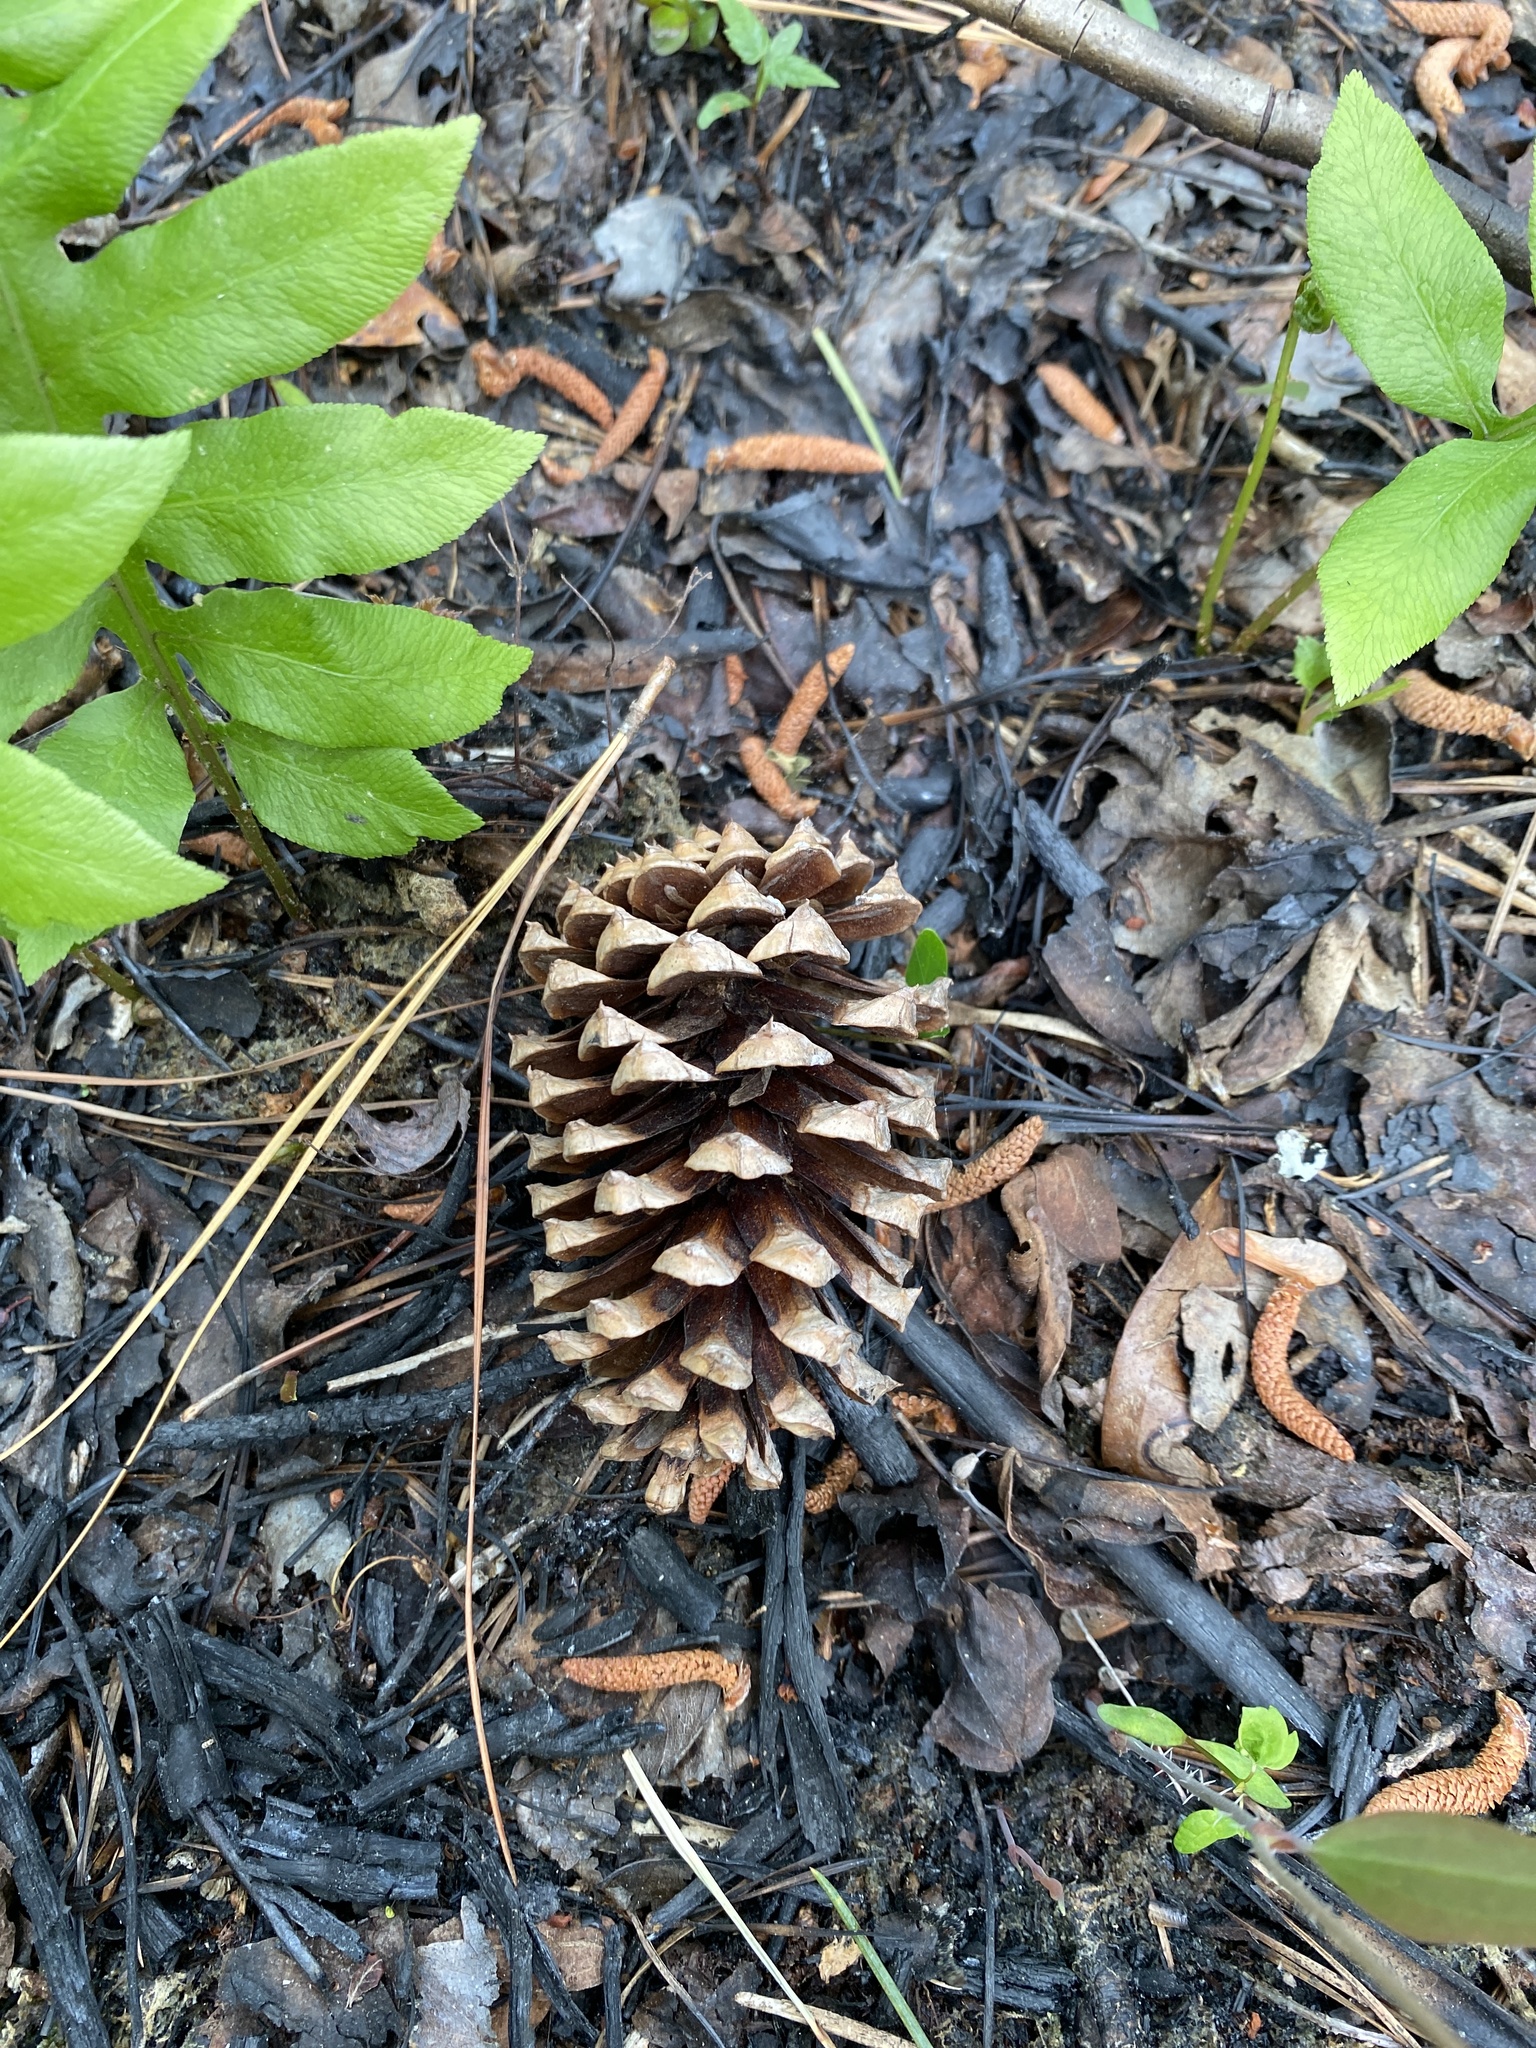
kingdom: Plantae
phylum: Tracheophyta
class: Pinopsida
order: Pinales
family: Pinaceae
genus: Pinus
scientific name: Pinus taeda
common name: Loblolly pine
